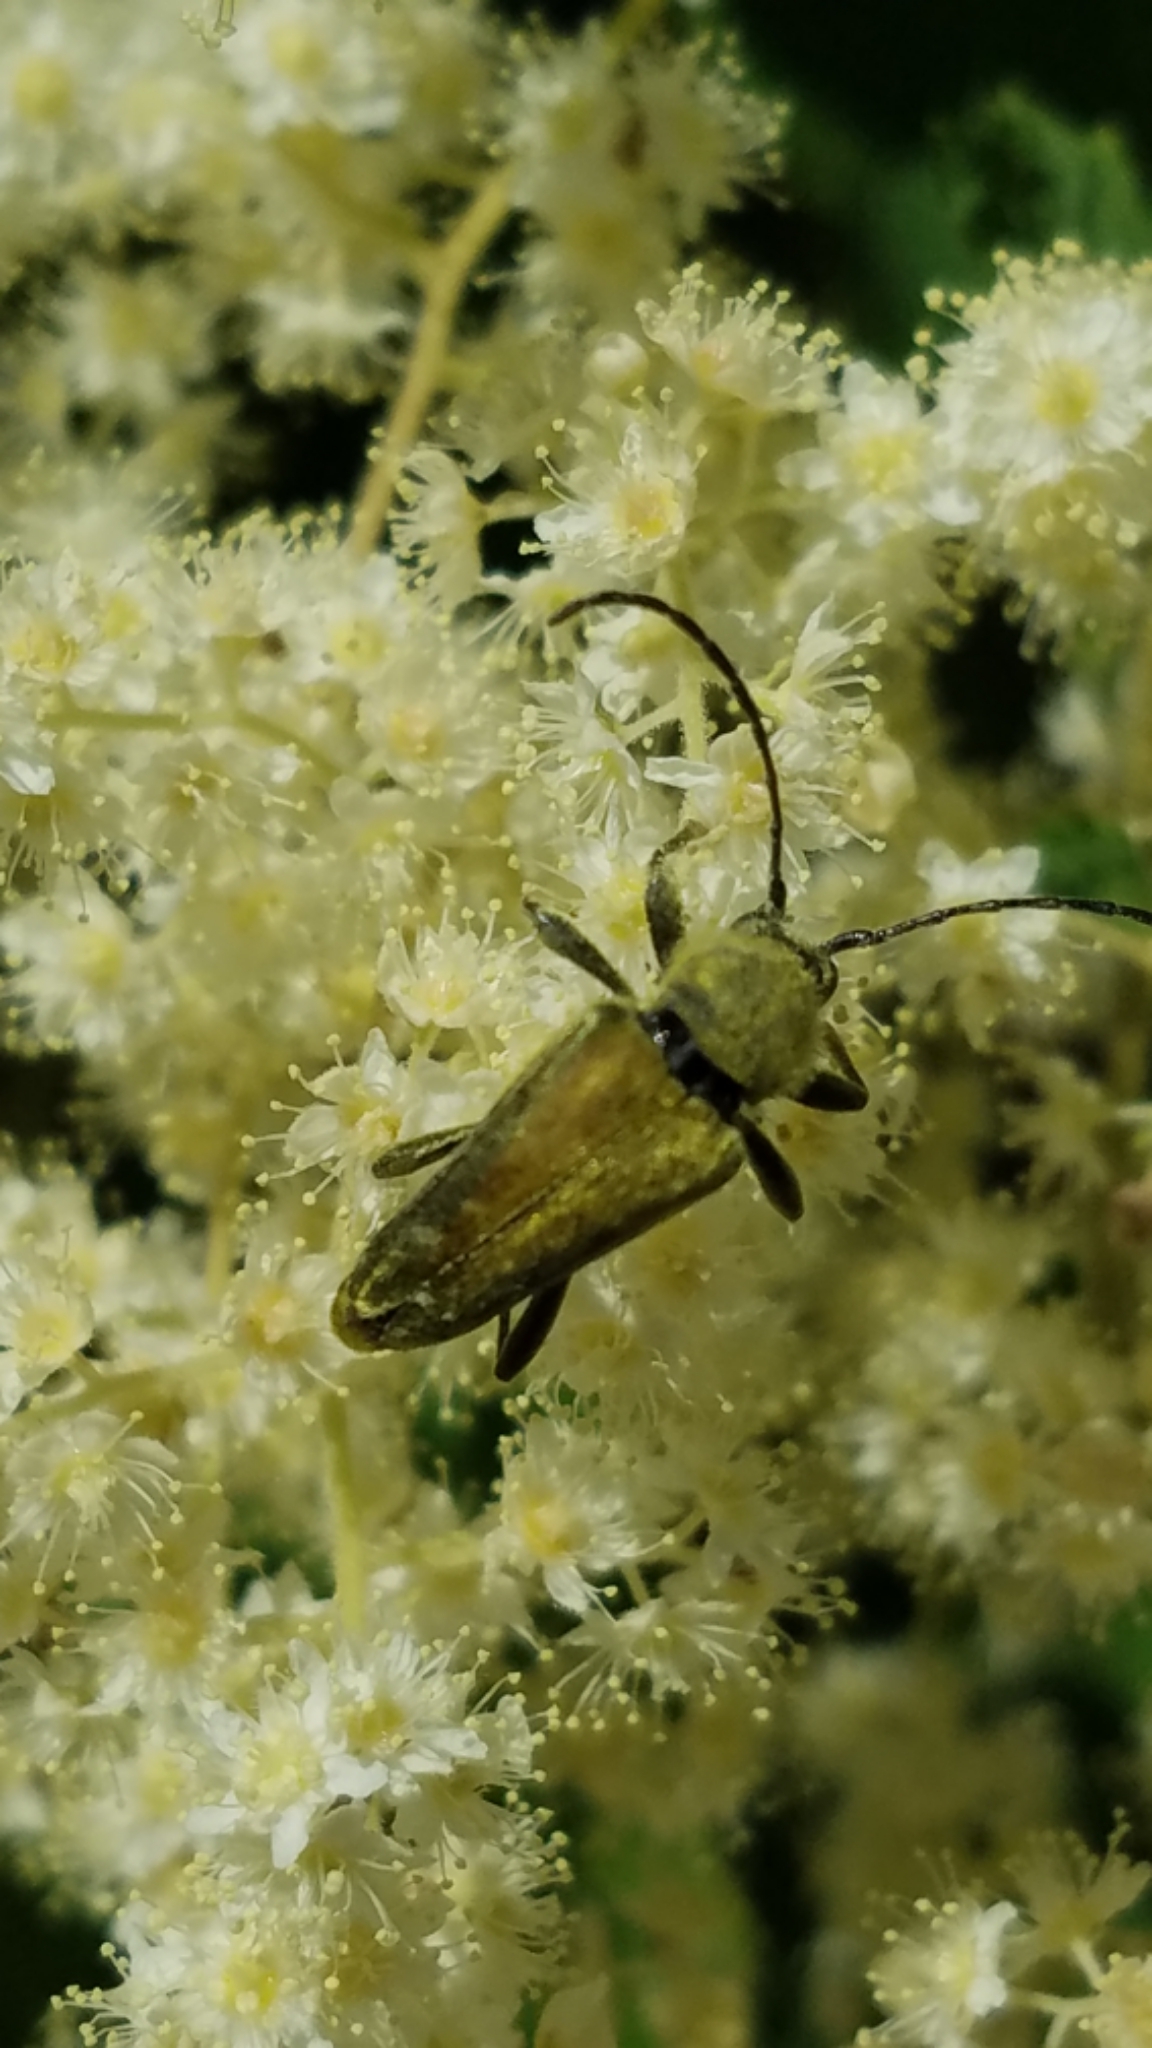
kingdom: Animalia
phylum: Arthropoda
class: Insecta
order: Coleoptera
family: Cerambycidae
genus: Cosmosalia
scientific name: Cosmosalia chrysocoma
